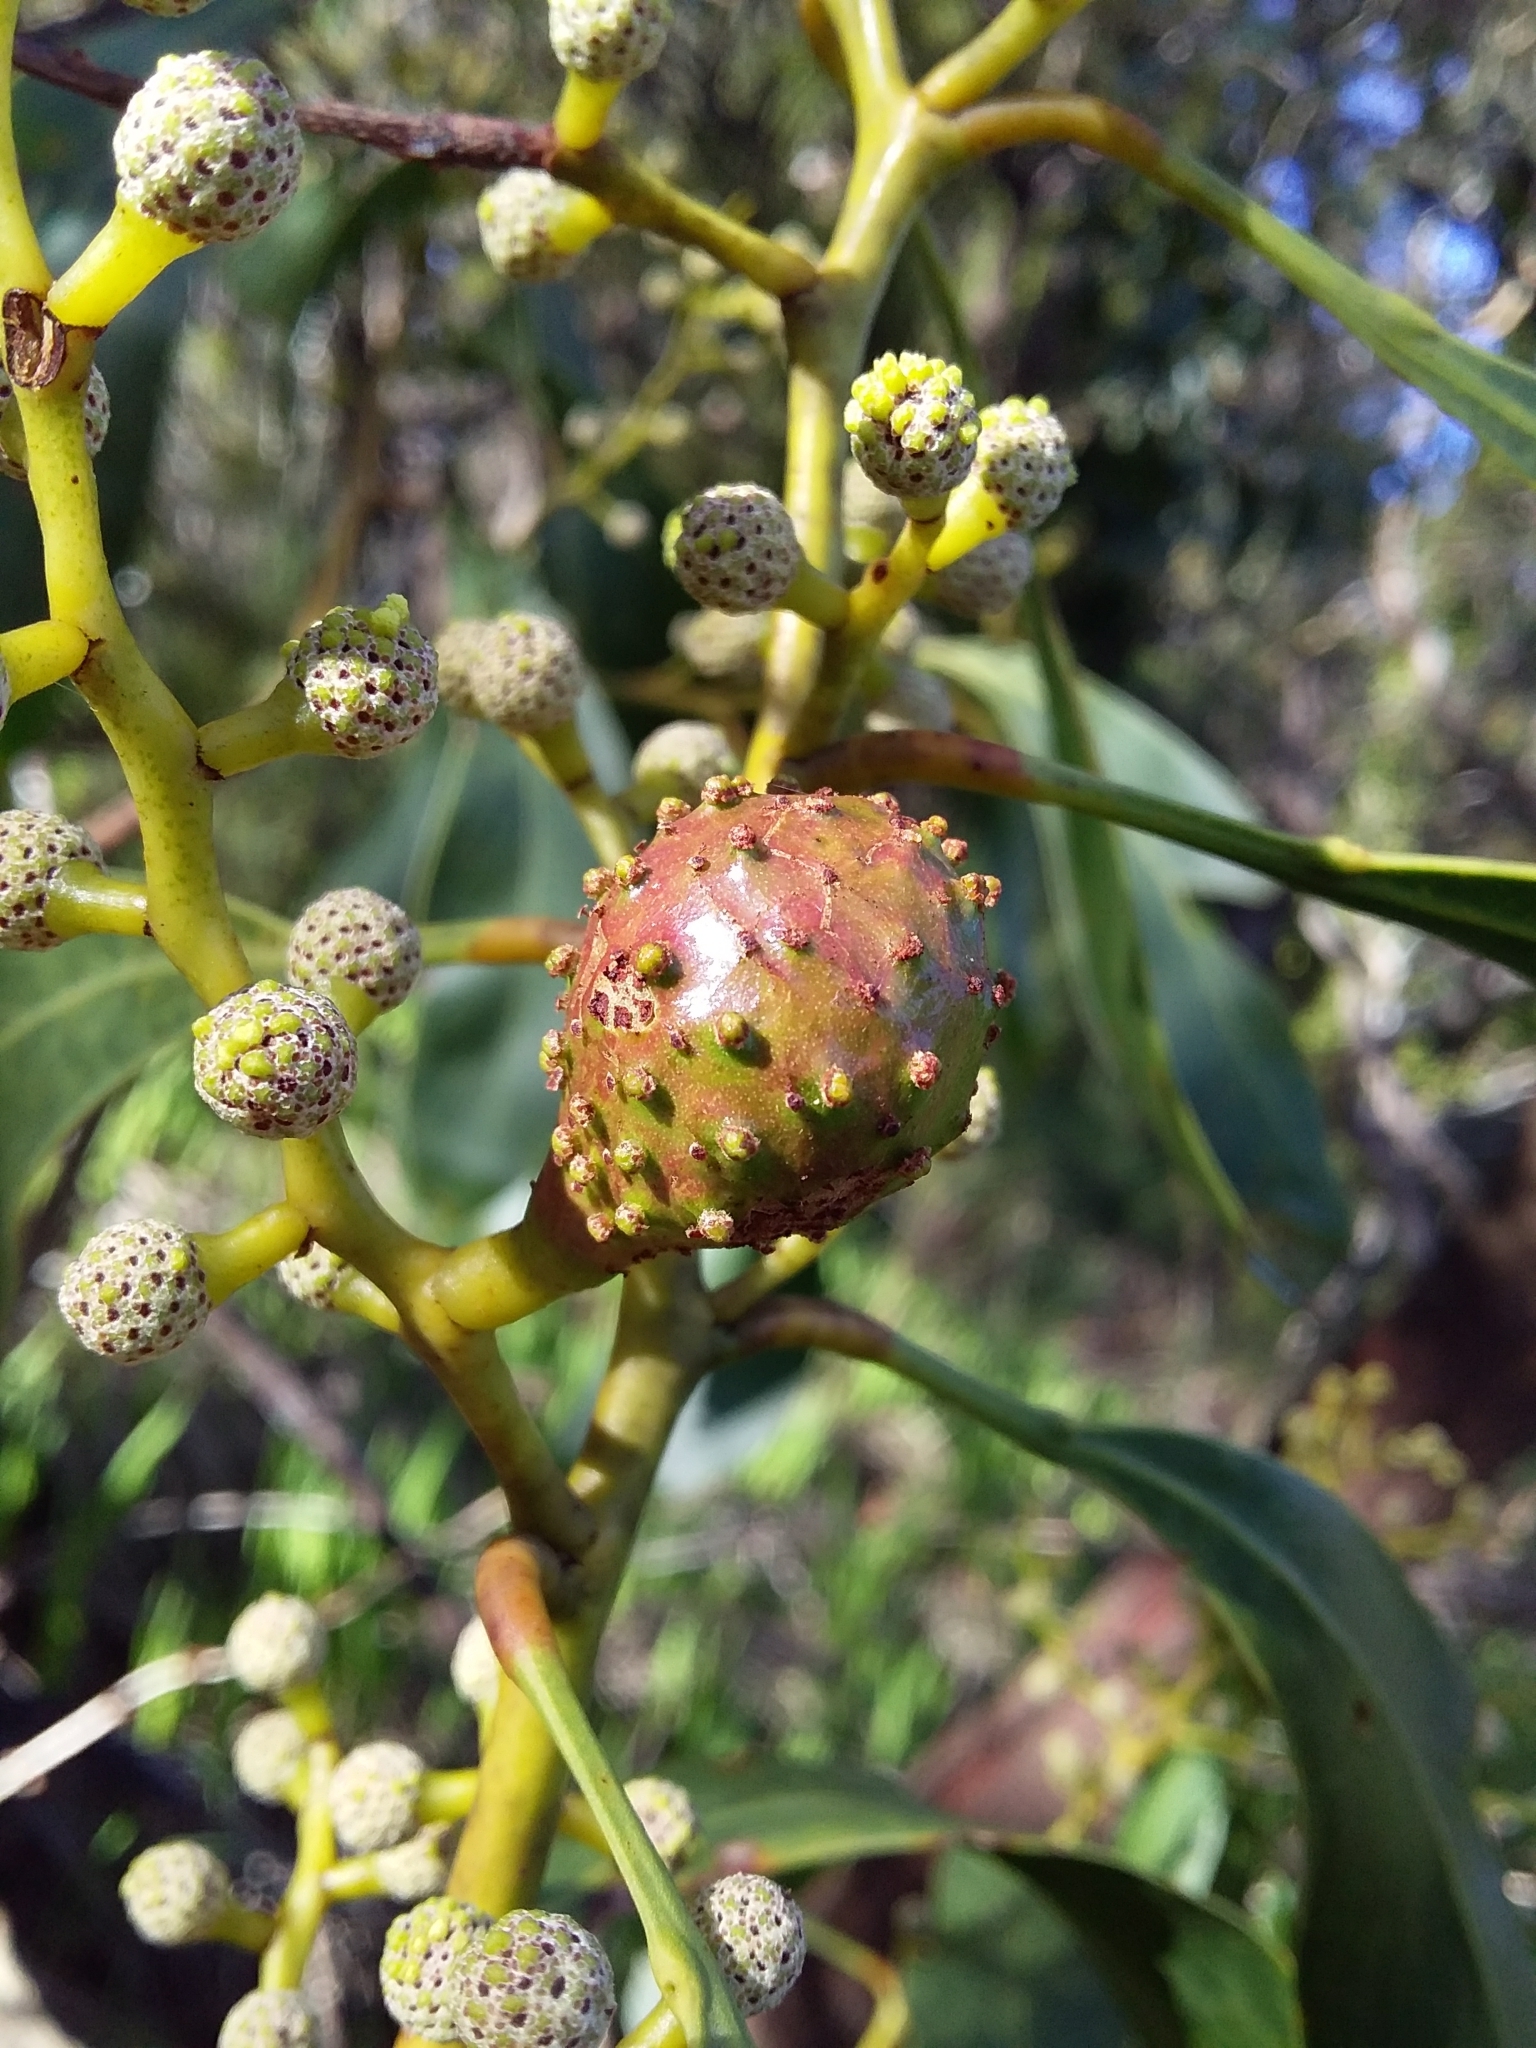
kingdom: Animalia
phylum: Arthropoda
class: Insecta
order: Hymenoptera
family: Pteromalidae
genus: Trichilogaster
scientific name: Trichilogaster signiventris
